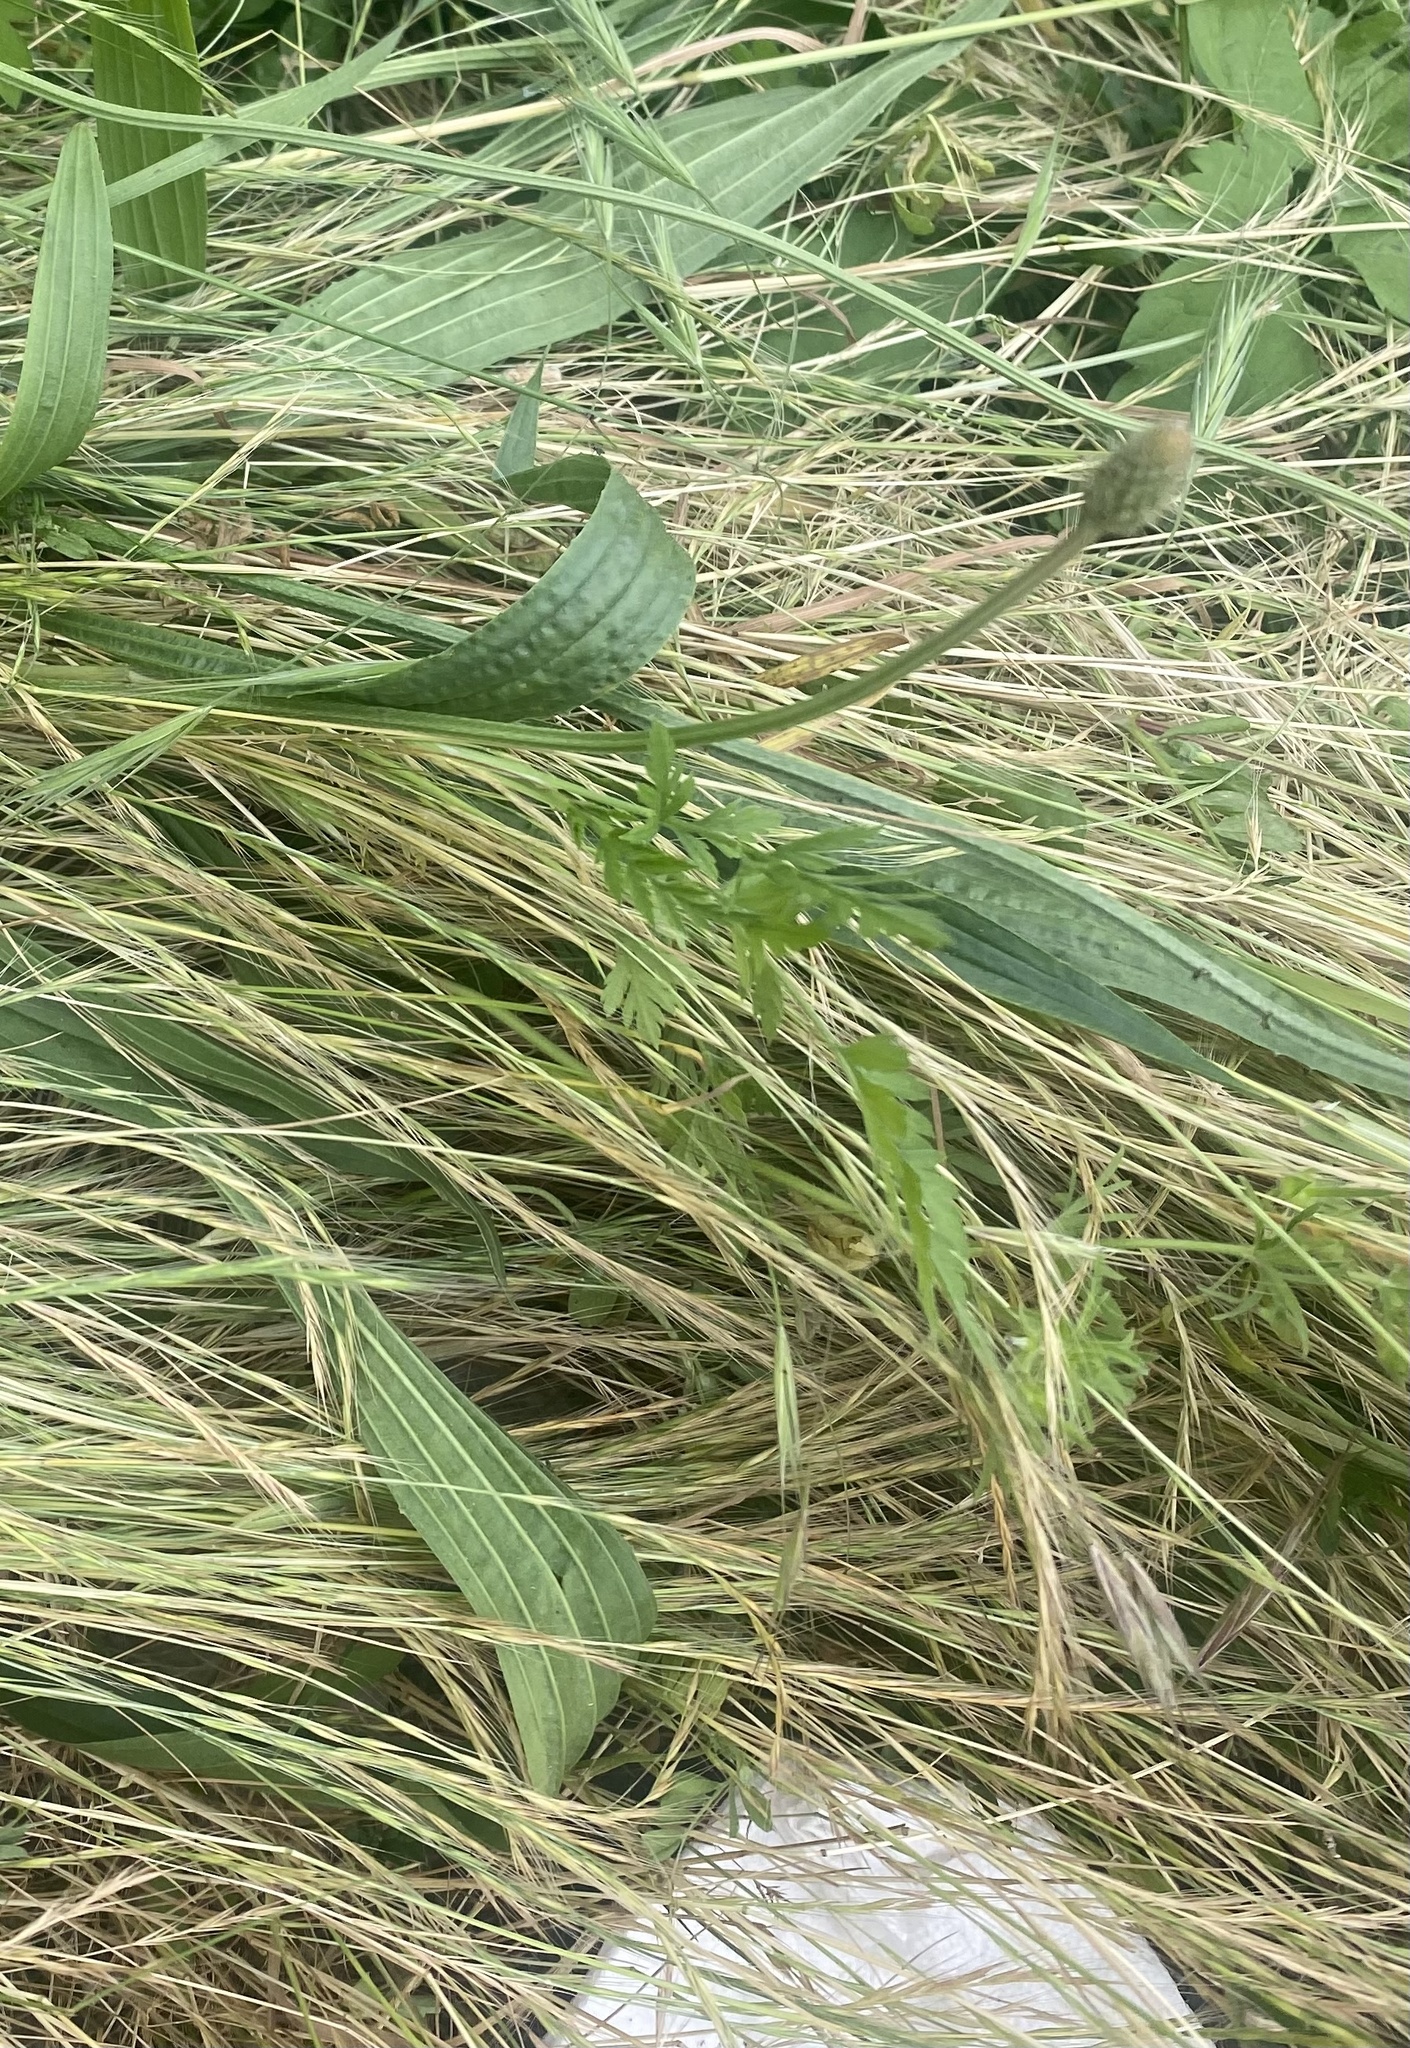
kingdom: Plantae
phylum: Tracheophyta
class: Magnoliopsida
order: Lamiales
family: Plantaginaceae
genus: Plantago
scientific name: Plantago lanceolata
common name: Ribwort plantain
